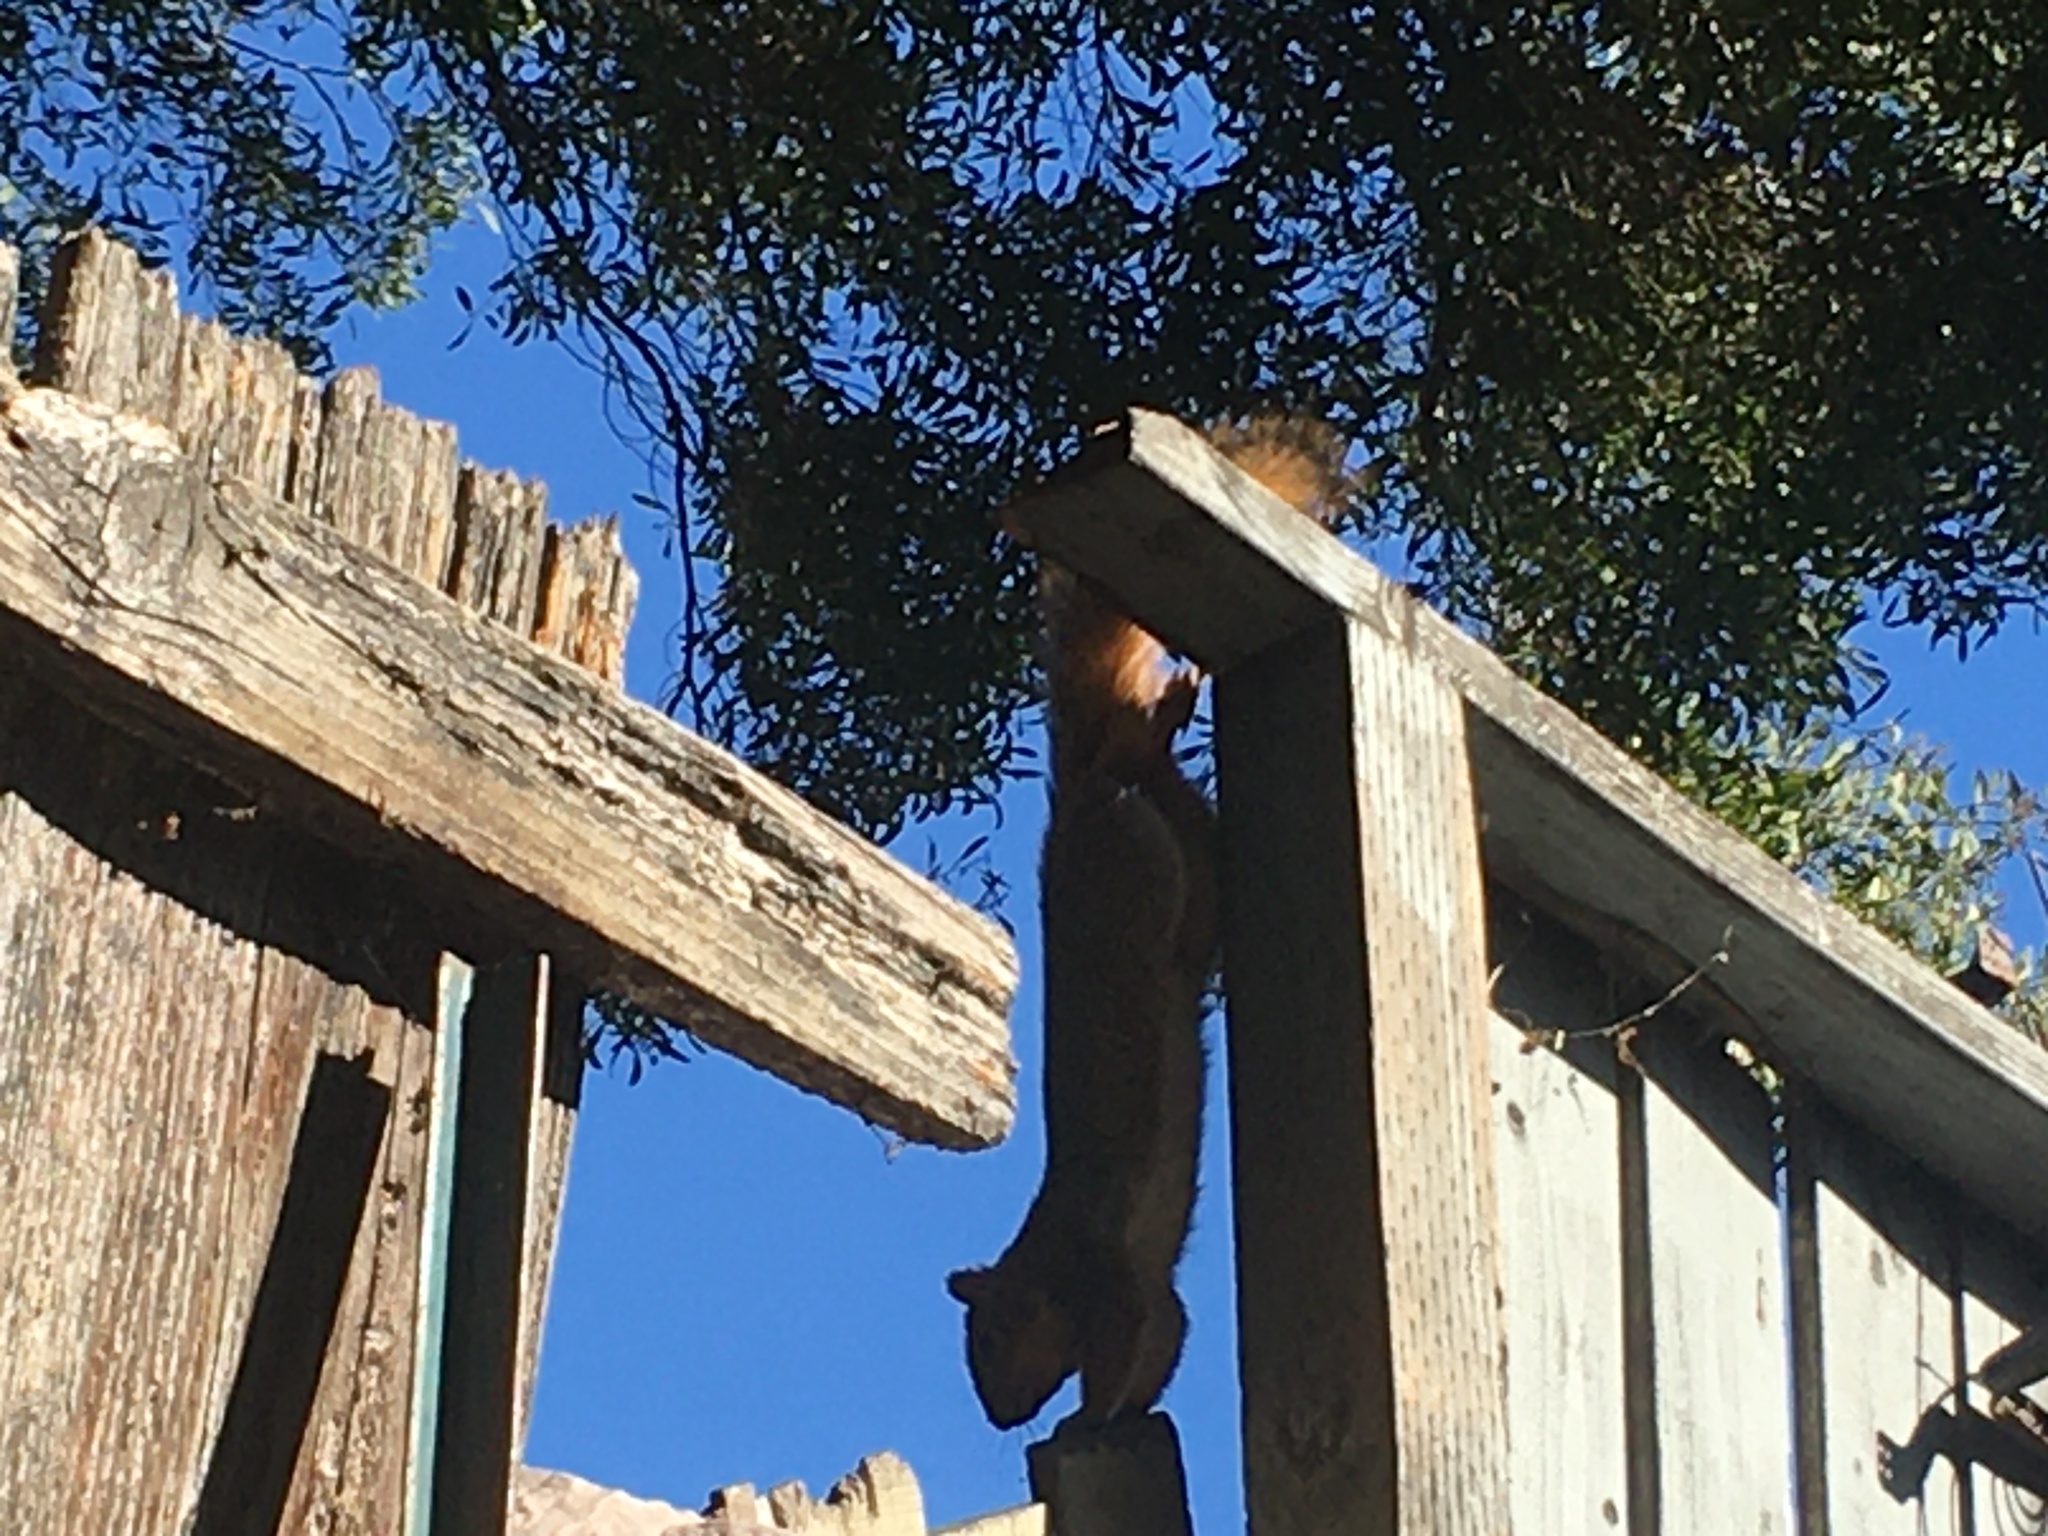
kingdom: Animalia
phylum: Chordata
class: Mammalia
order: Rodentia
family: Sciuridae
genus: Sciurus
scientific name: Sciurus niger
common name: Fox squirrel
